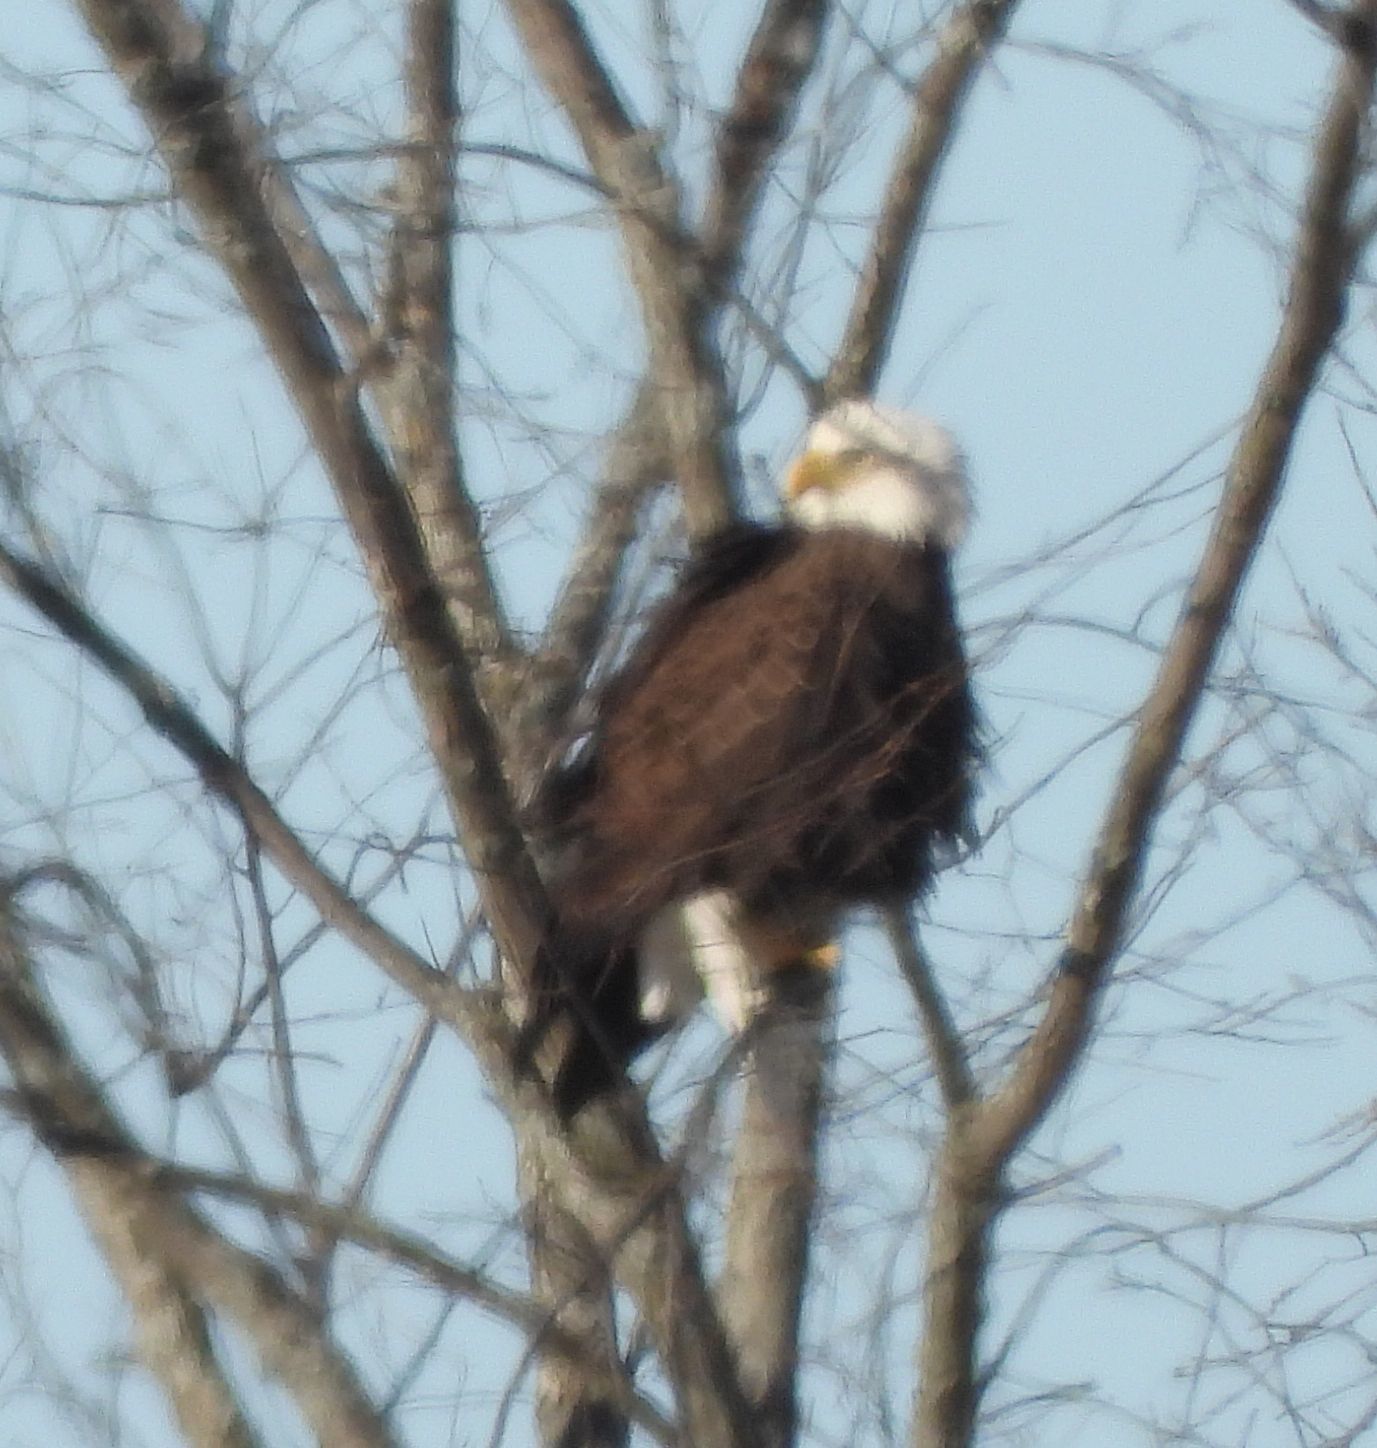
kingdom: Animalia
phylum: Chordata
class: Aves
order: Accipitriformes
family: Accipitridae
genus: Haliaeetus
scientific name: Haliaeetus leucocephalus
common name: Bald eagle
